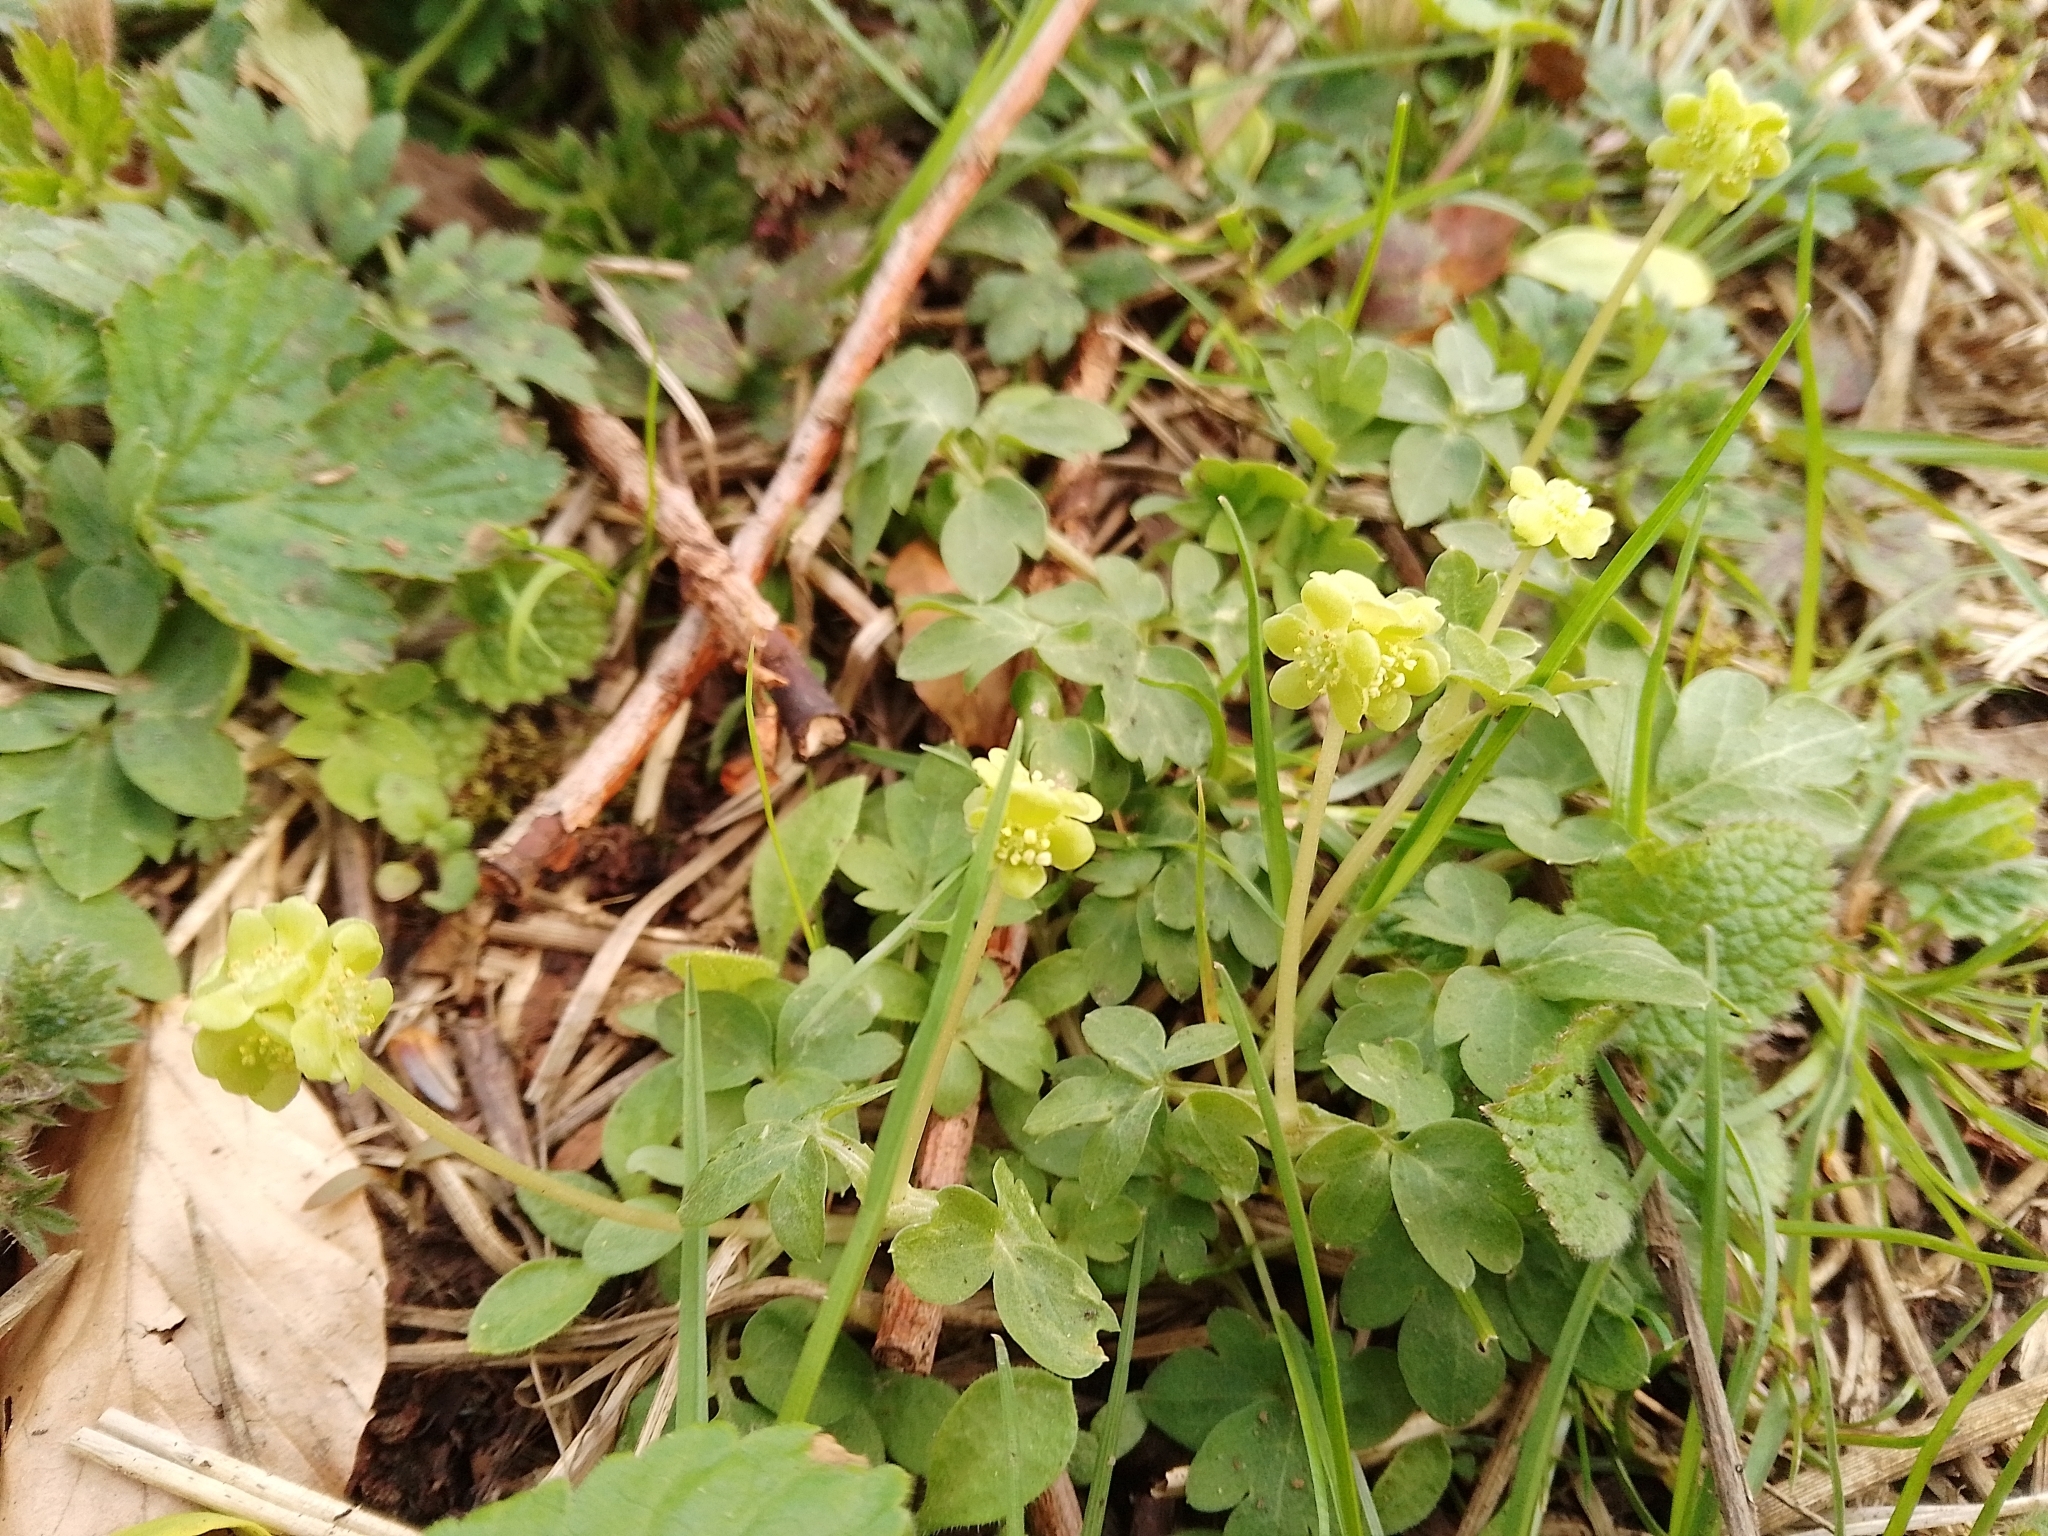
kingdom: Plantae
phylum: Tracheophyta
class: Magnoliopsida
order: Dipsacales
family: Viburnaceae
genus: Adoxa
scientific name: Adoxa moschatellina
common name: Moschatel
